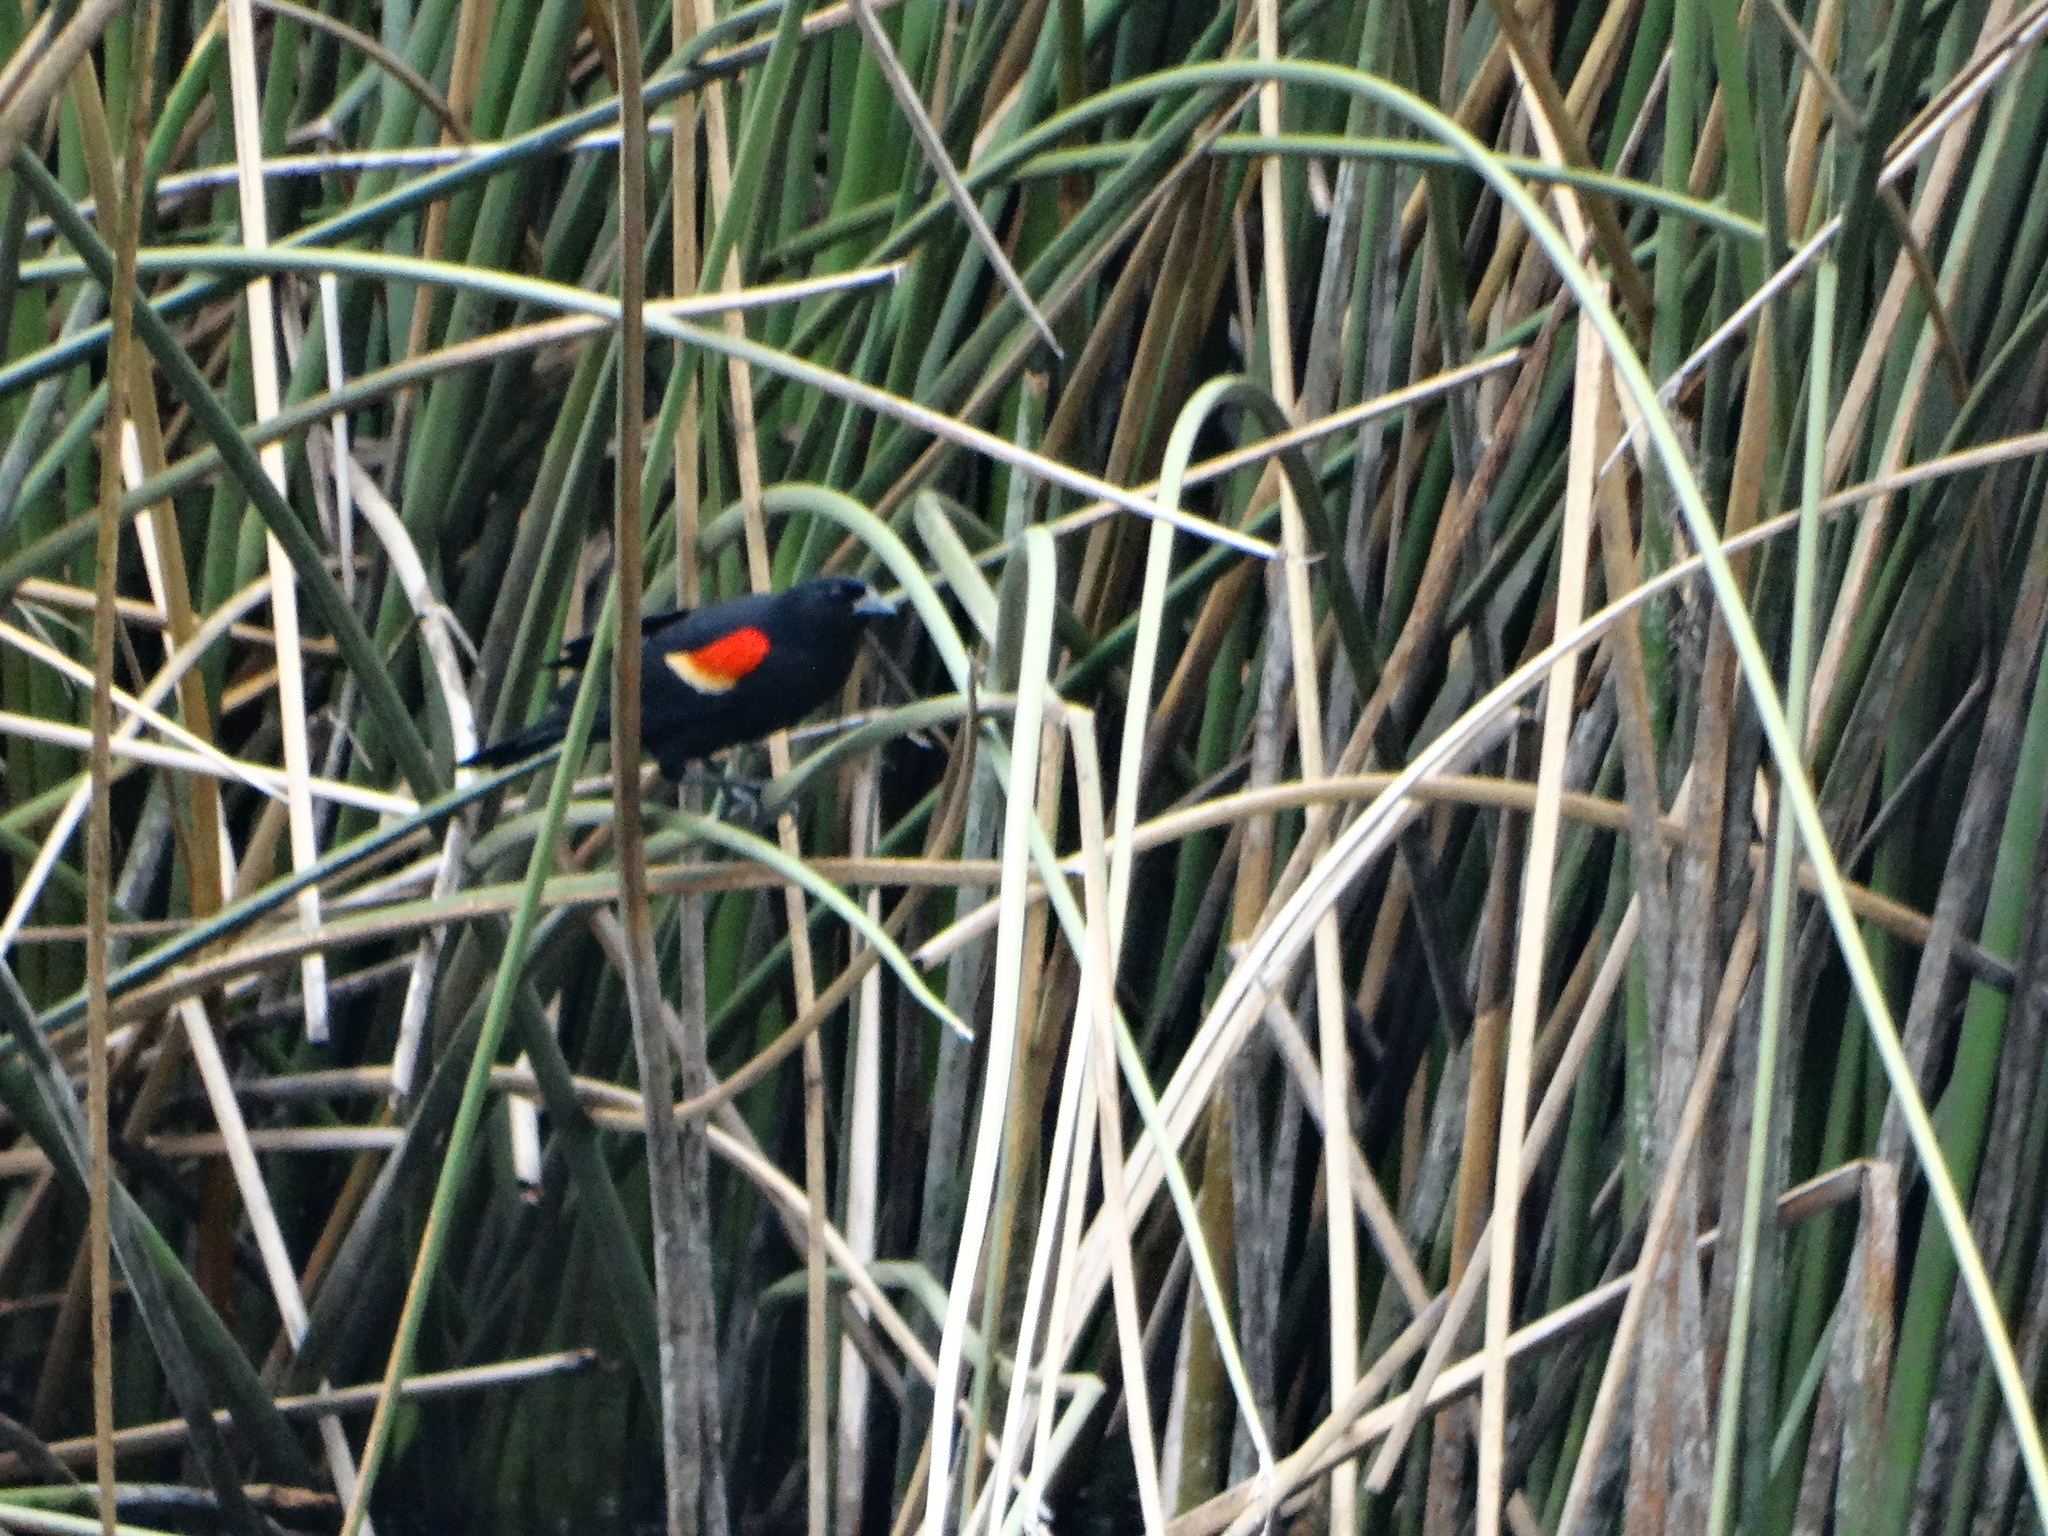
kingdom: Animalia
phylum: Chordata
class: Aves
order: Passeriformes
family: Icteridae
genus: Agelaius
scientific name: Agelaius phoeniceus
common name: Red-winged blackbird
